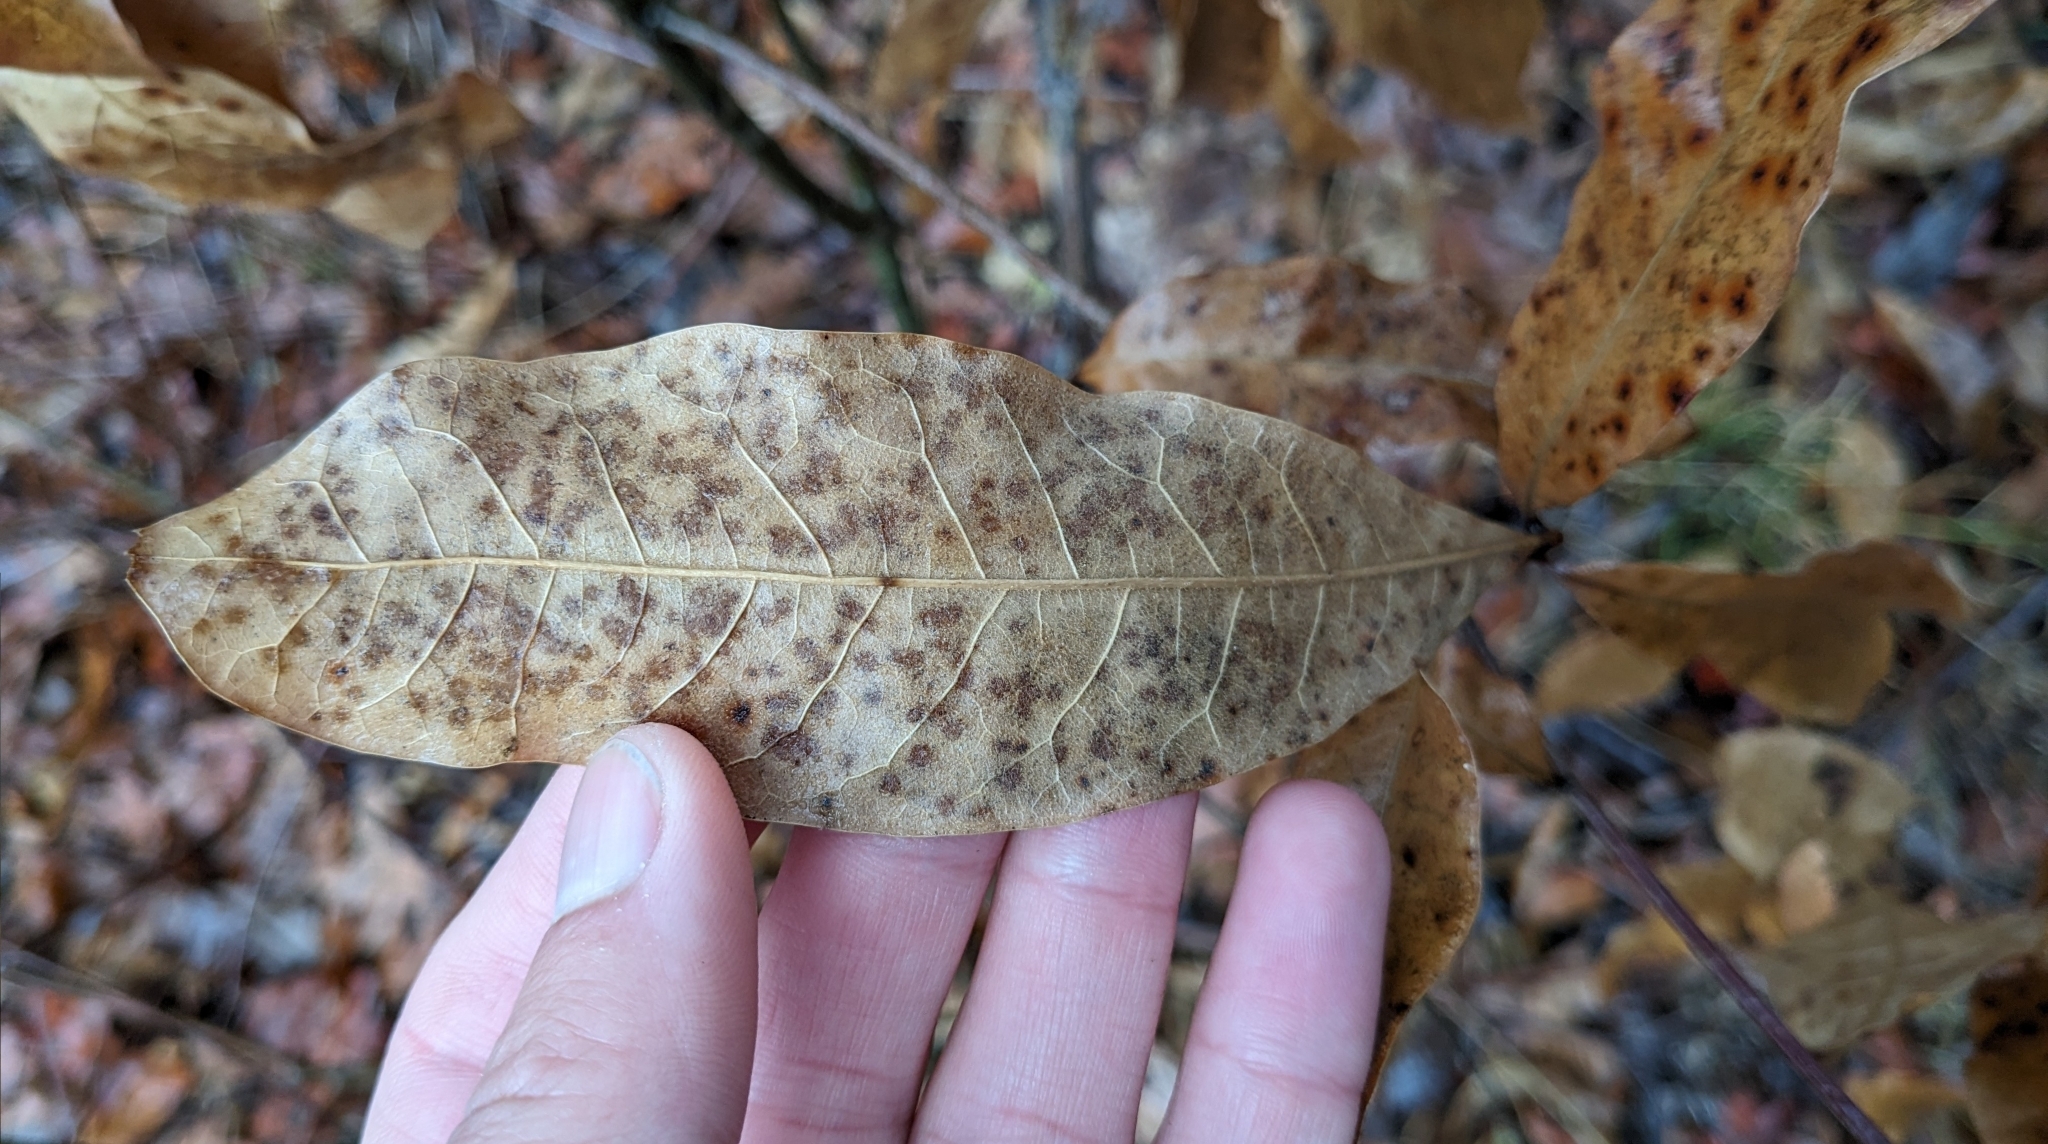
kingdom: Plantae
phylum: Tracheophyta
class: Magnoliopsida
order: Fagales
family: Fagaceae
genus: Quercus
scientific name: Quercus imbricaria
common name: Shingle oak
